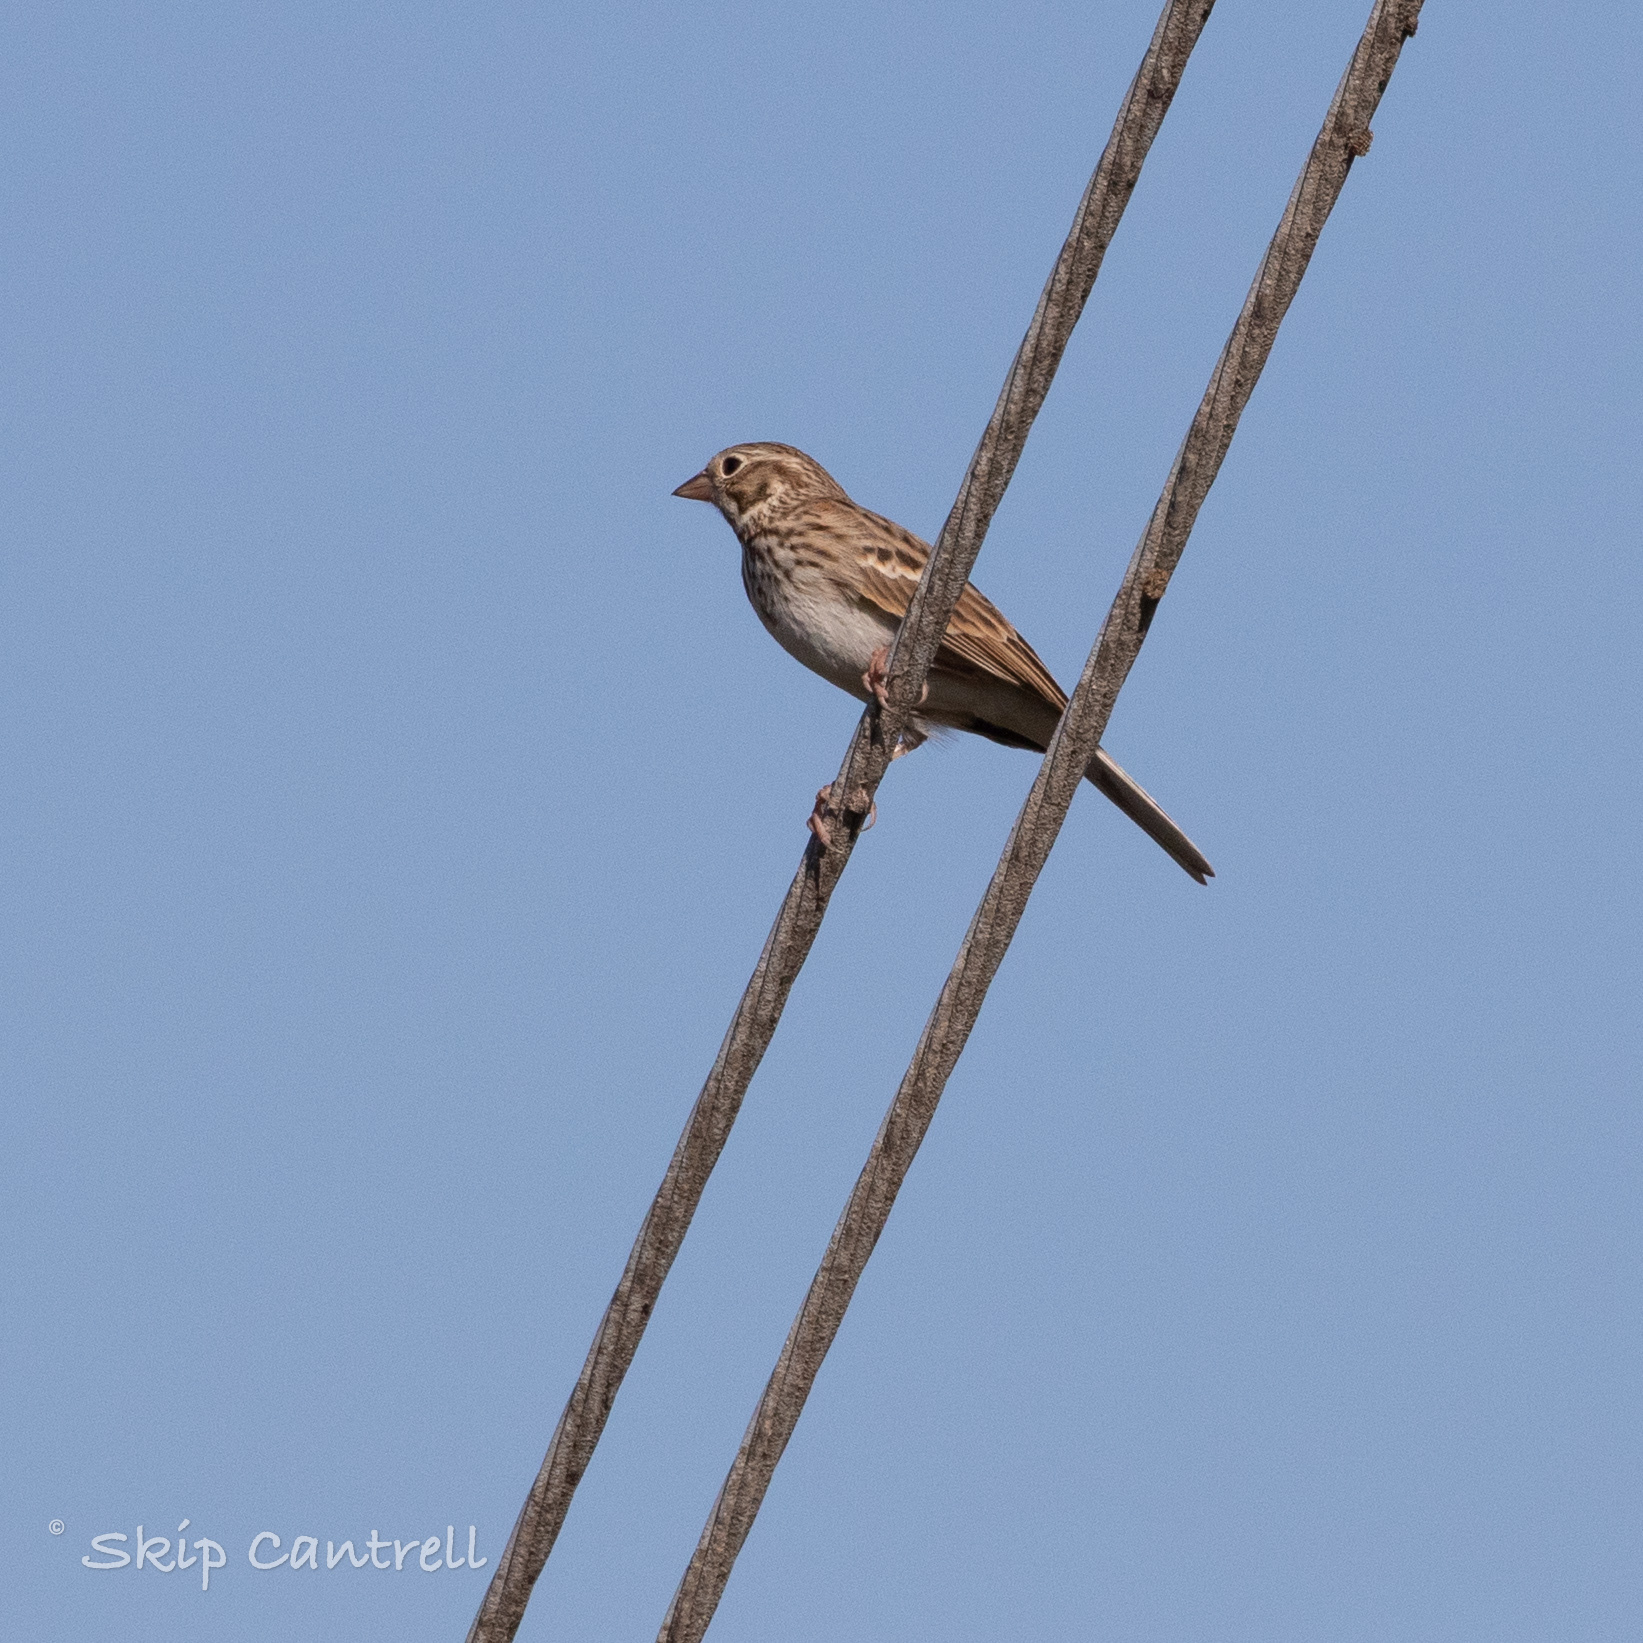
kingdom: Animalia
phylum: Chordata
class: Aves
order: Passeriformes
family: Passerellidae
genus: Pooecetes
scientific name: Pooecetes gramineus
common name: Vesper sparrow
